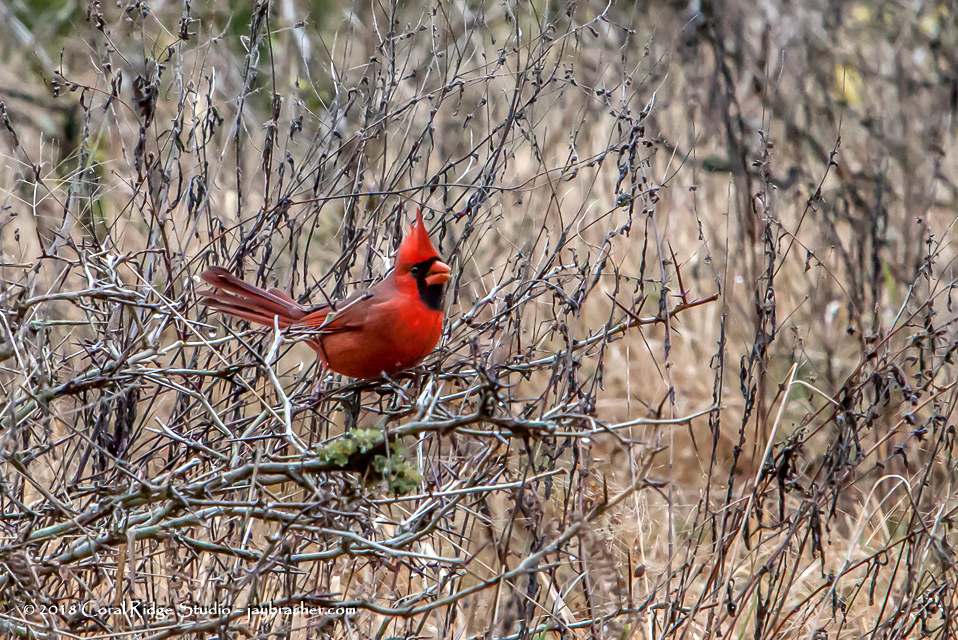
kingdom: Animalia
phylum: Chordata
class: Aves
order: Passeriformes
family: Cardinalidae
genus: Cardinalis
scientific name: Cardinalis cardinalis
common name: Northern cardinal
